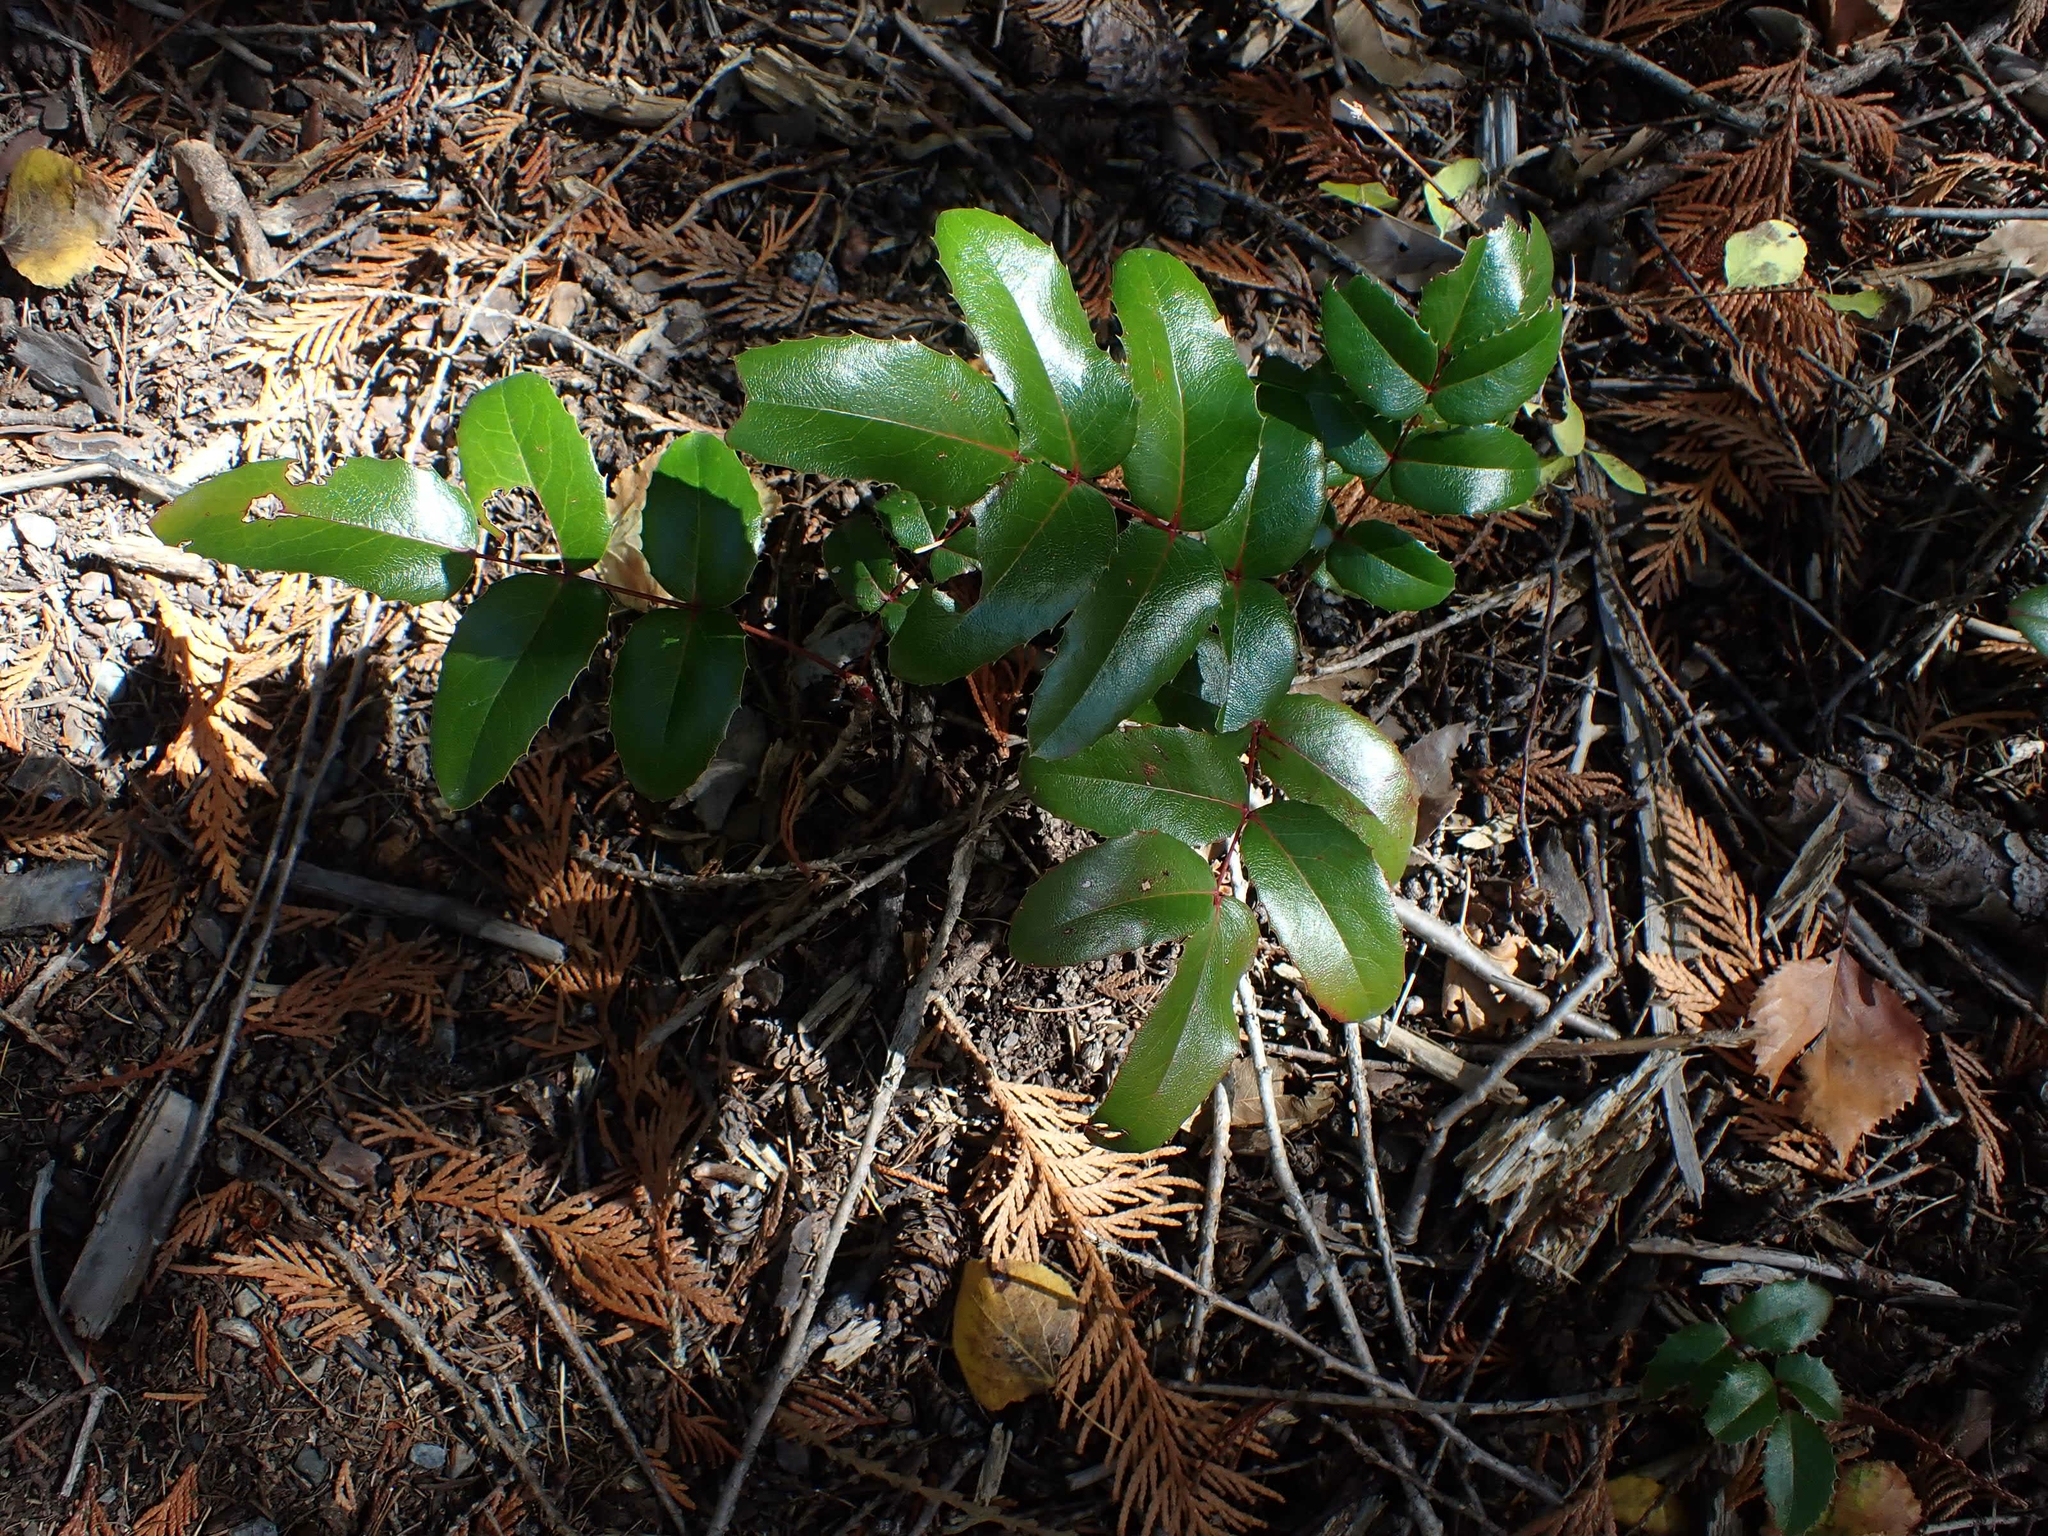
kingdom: Plantae
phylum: Tracheophyta
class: Magnoliopsida
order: Ranunculales
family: Berberidaceae
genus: Mahonia
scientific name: Mahonia aquifolium
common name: Oregon-grape
